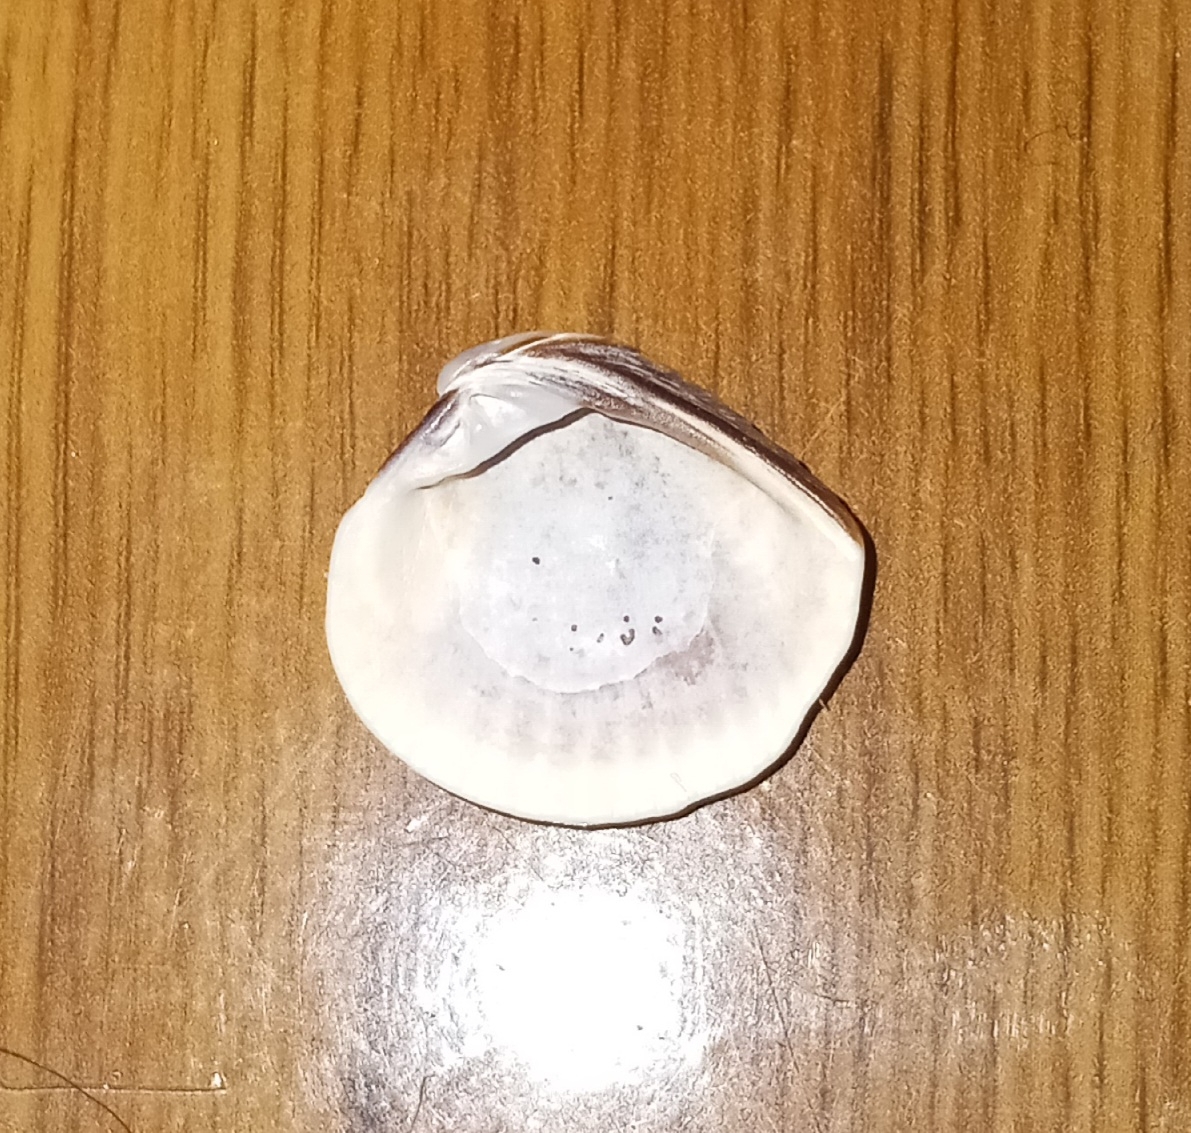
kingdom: Animalia
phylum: Mollusca
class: Bivalvia
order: Venerida
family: Veneridae
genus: Chione
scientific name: Chione elevata
